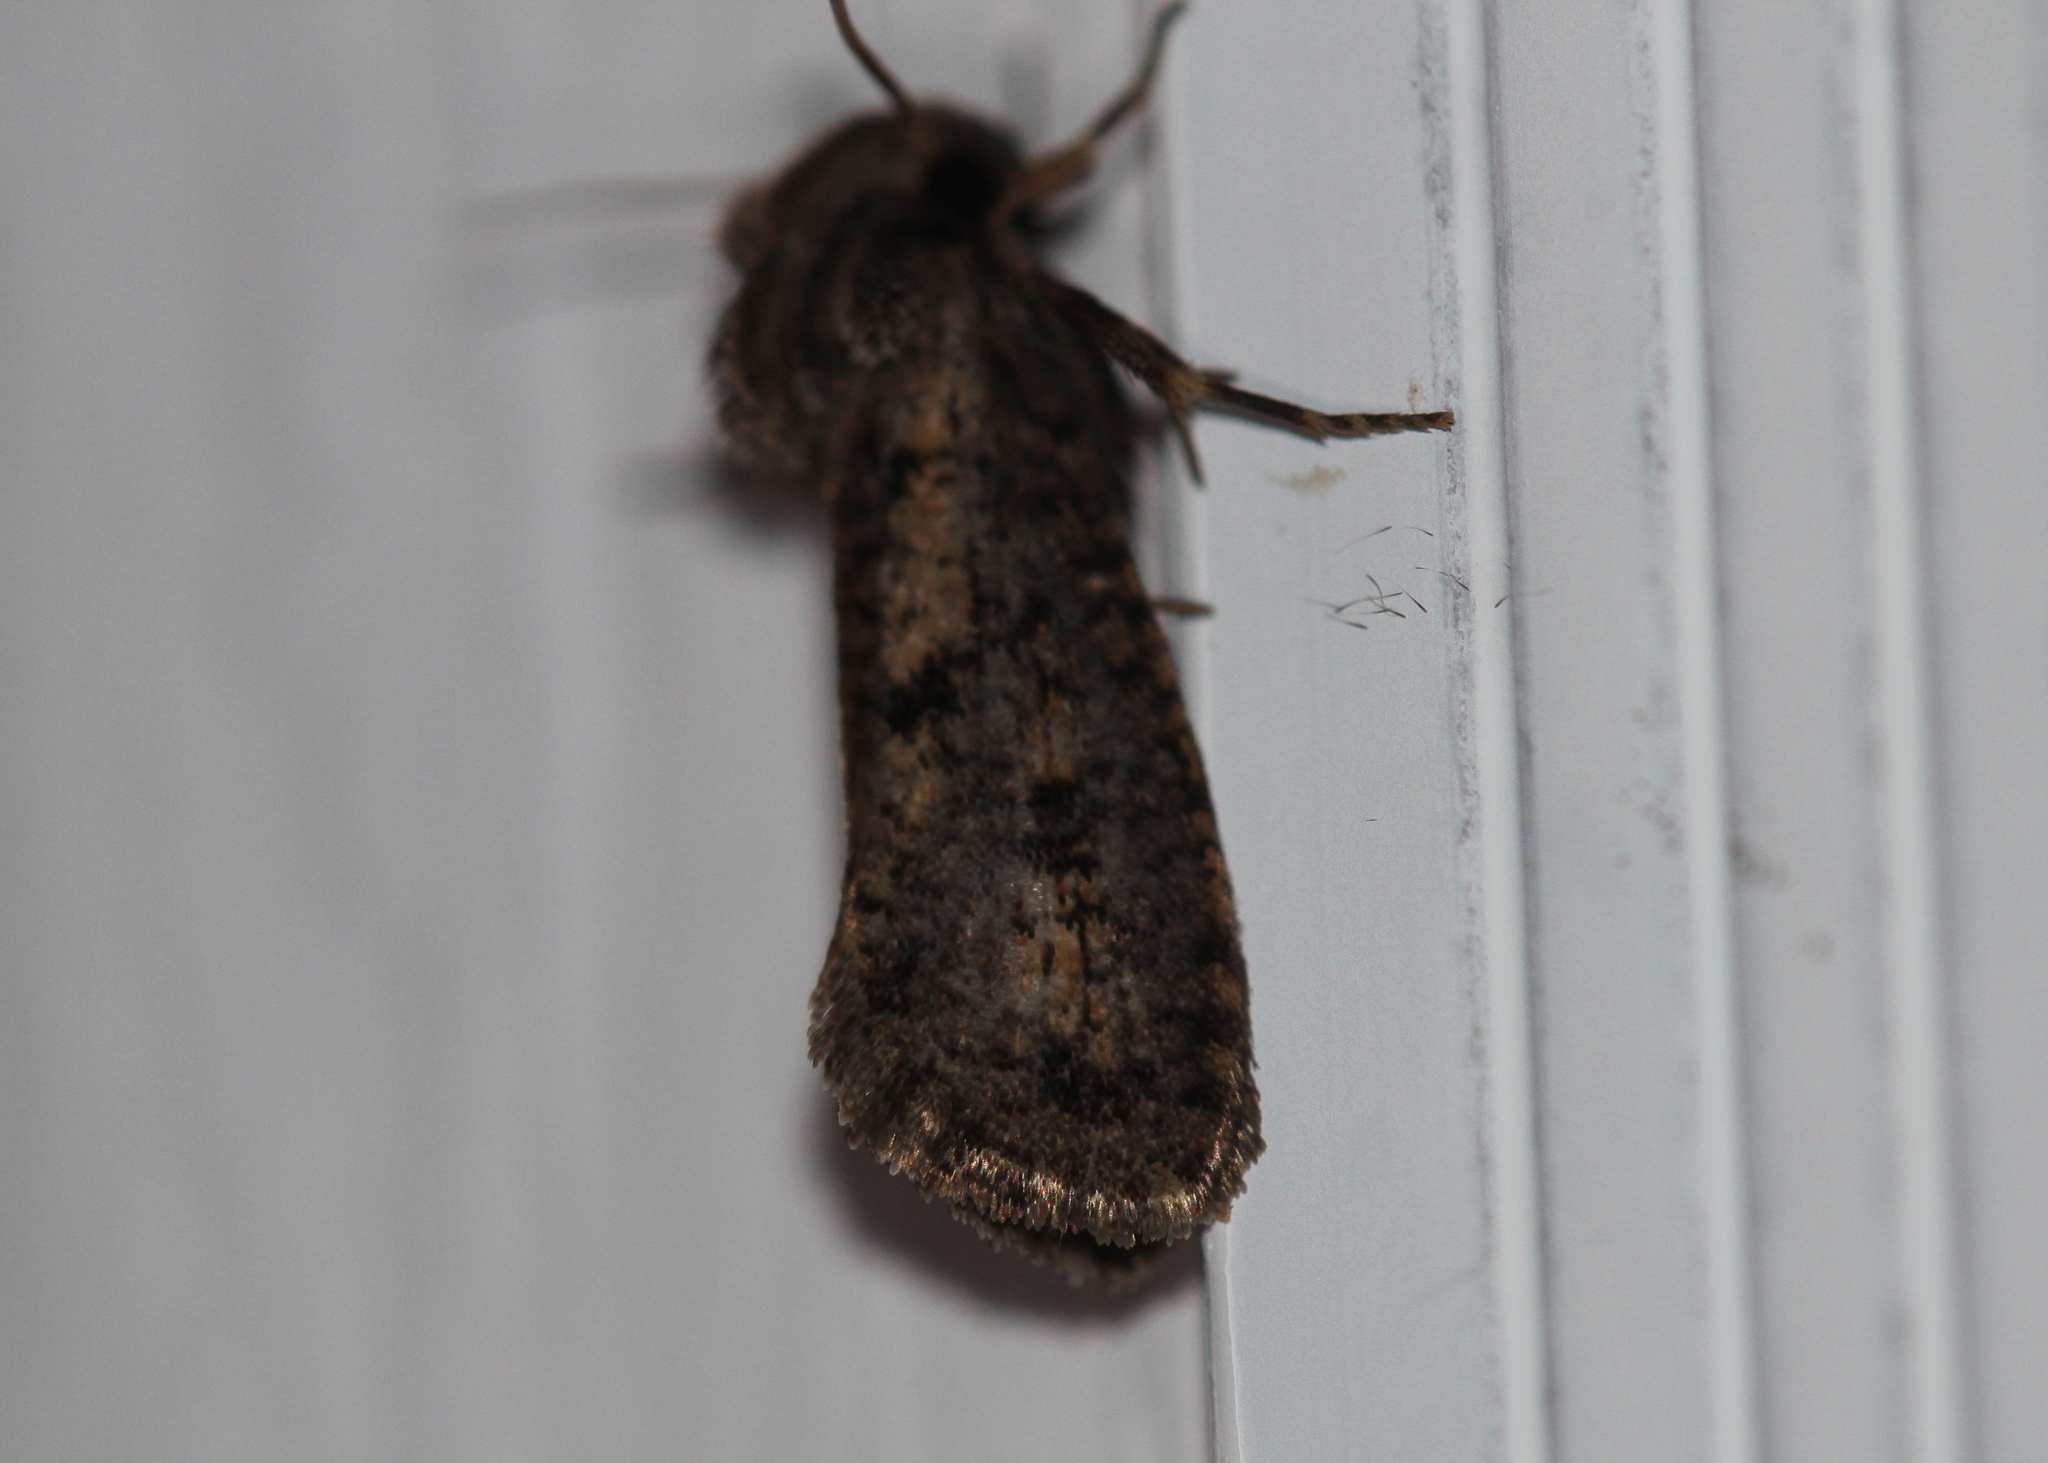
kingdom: Animalia
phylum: Arthropoda
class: Insecta
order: Lepidoptera
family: Tineidae
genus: Acrolophus
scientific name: Acrolophus popeanella
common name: Clemens' grass tubeworm moth
